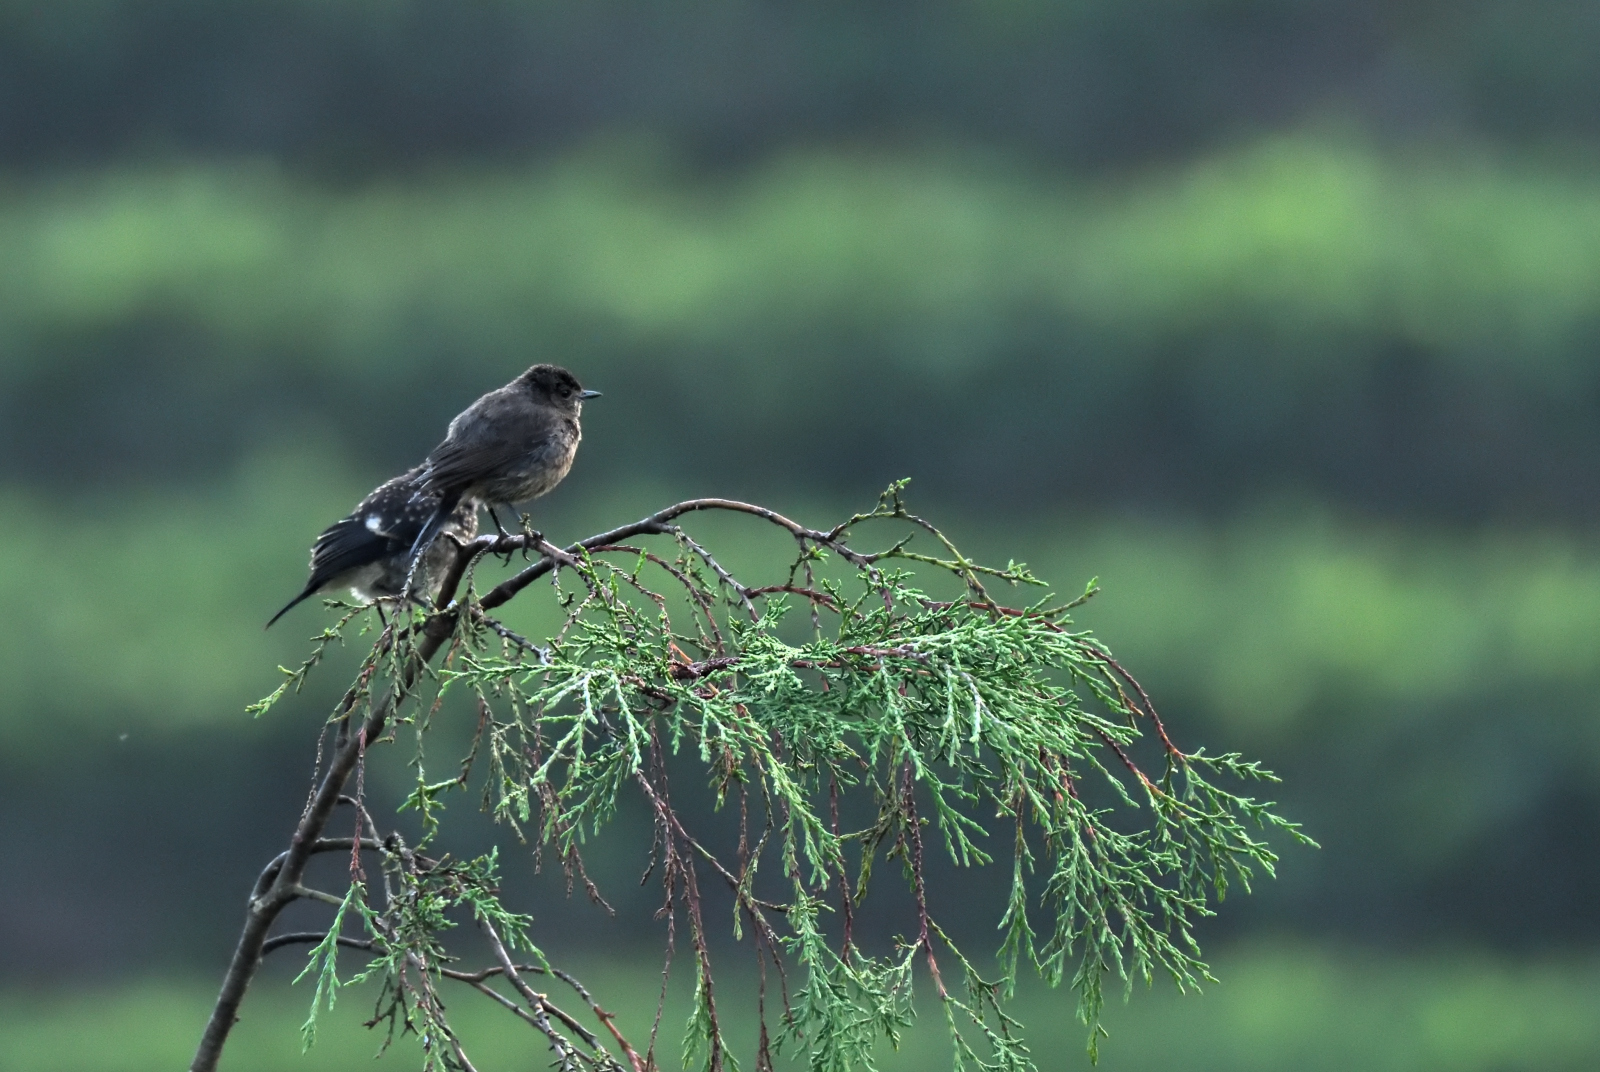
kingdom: Animalia
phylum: Chordata
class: Aves
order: Passeriformes
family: Muscicapidae
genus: Saxicola
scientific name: Saxicola caprata
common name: Pied bush chat
